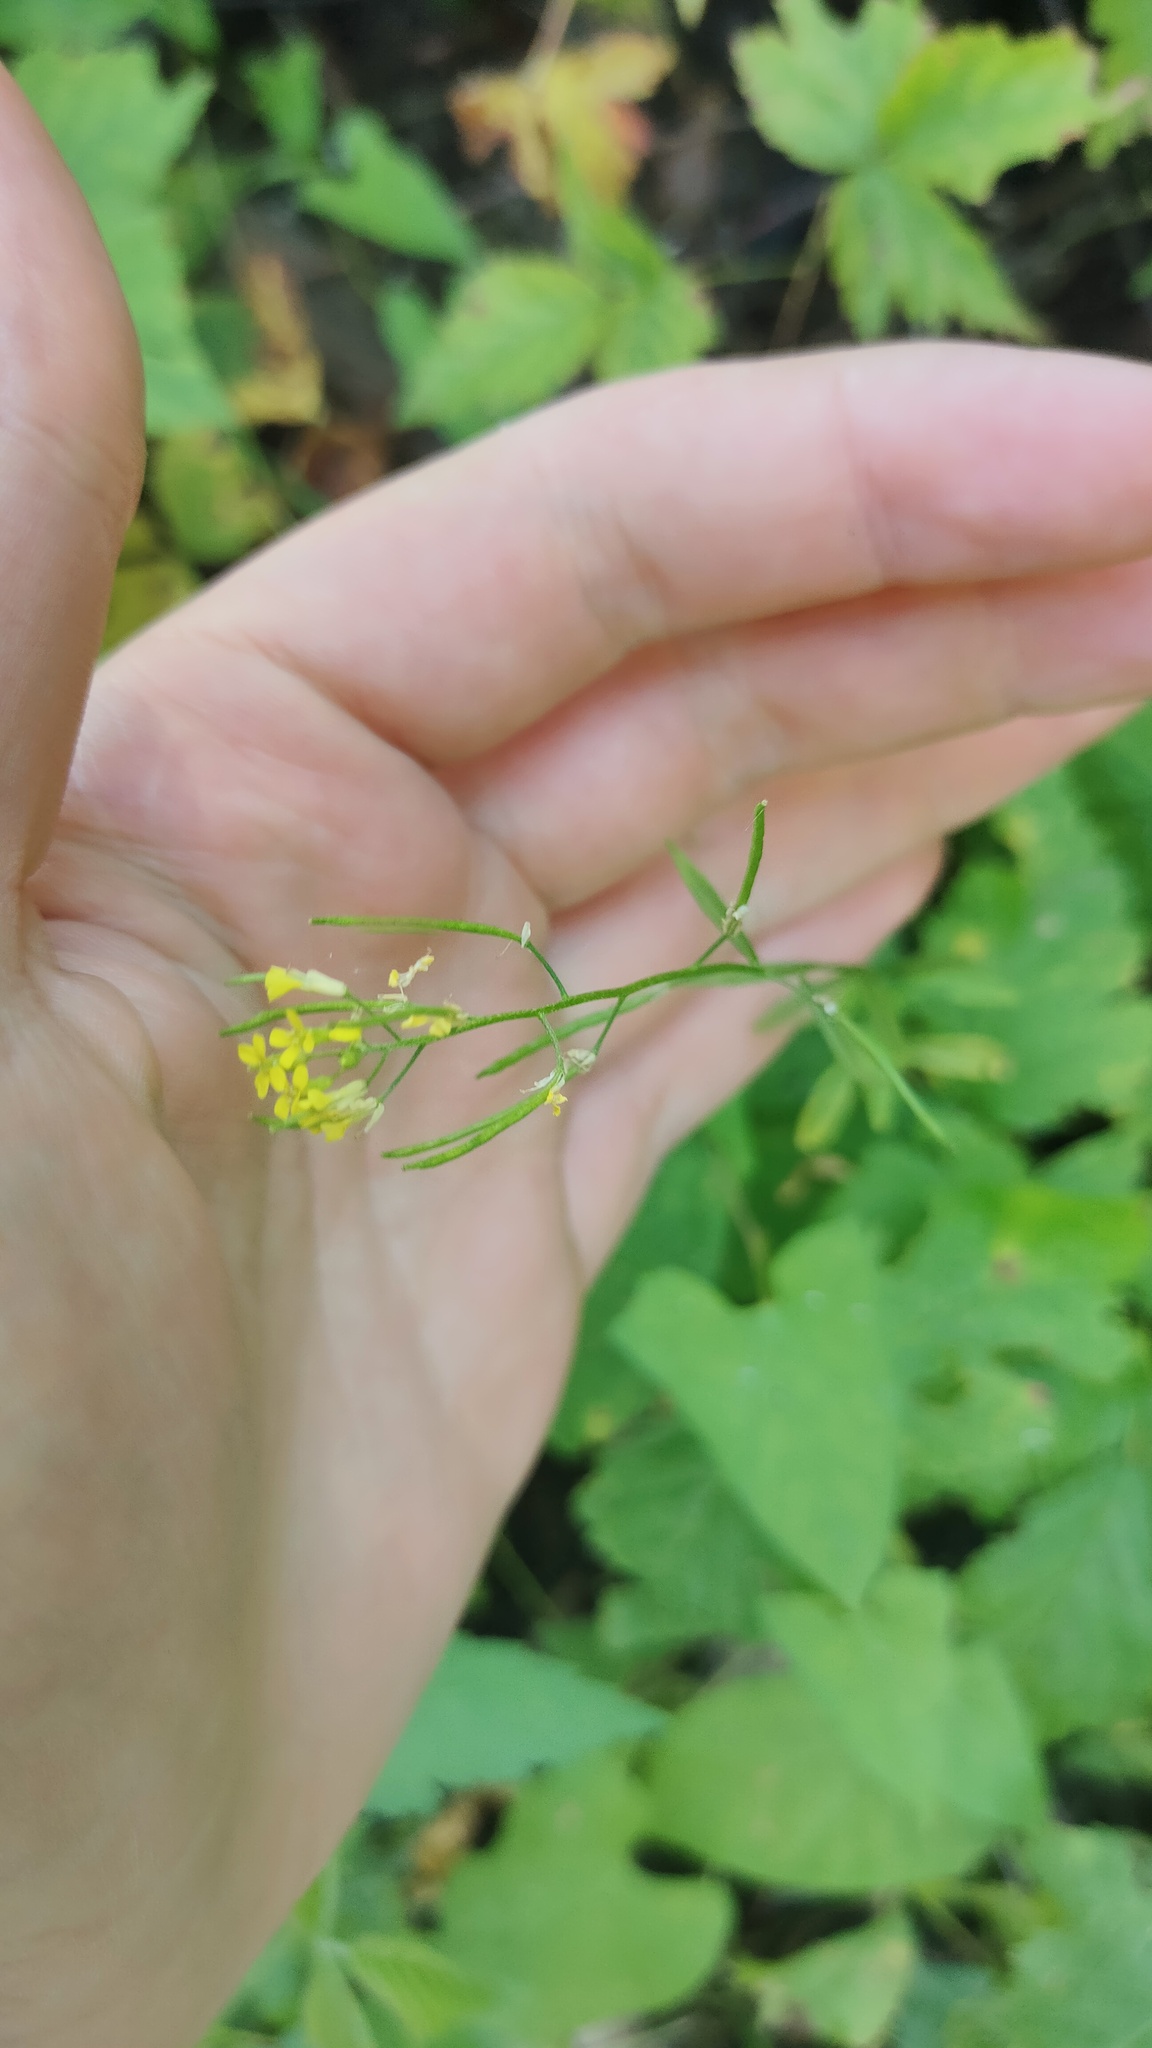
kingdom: Plantae
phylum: Tracheophyta
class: Magnoliopsida
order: Brassicales
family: Brassicaceae
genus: Erysimum
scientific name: Erysimum cheiranthoides
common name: Treacle mustard
